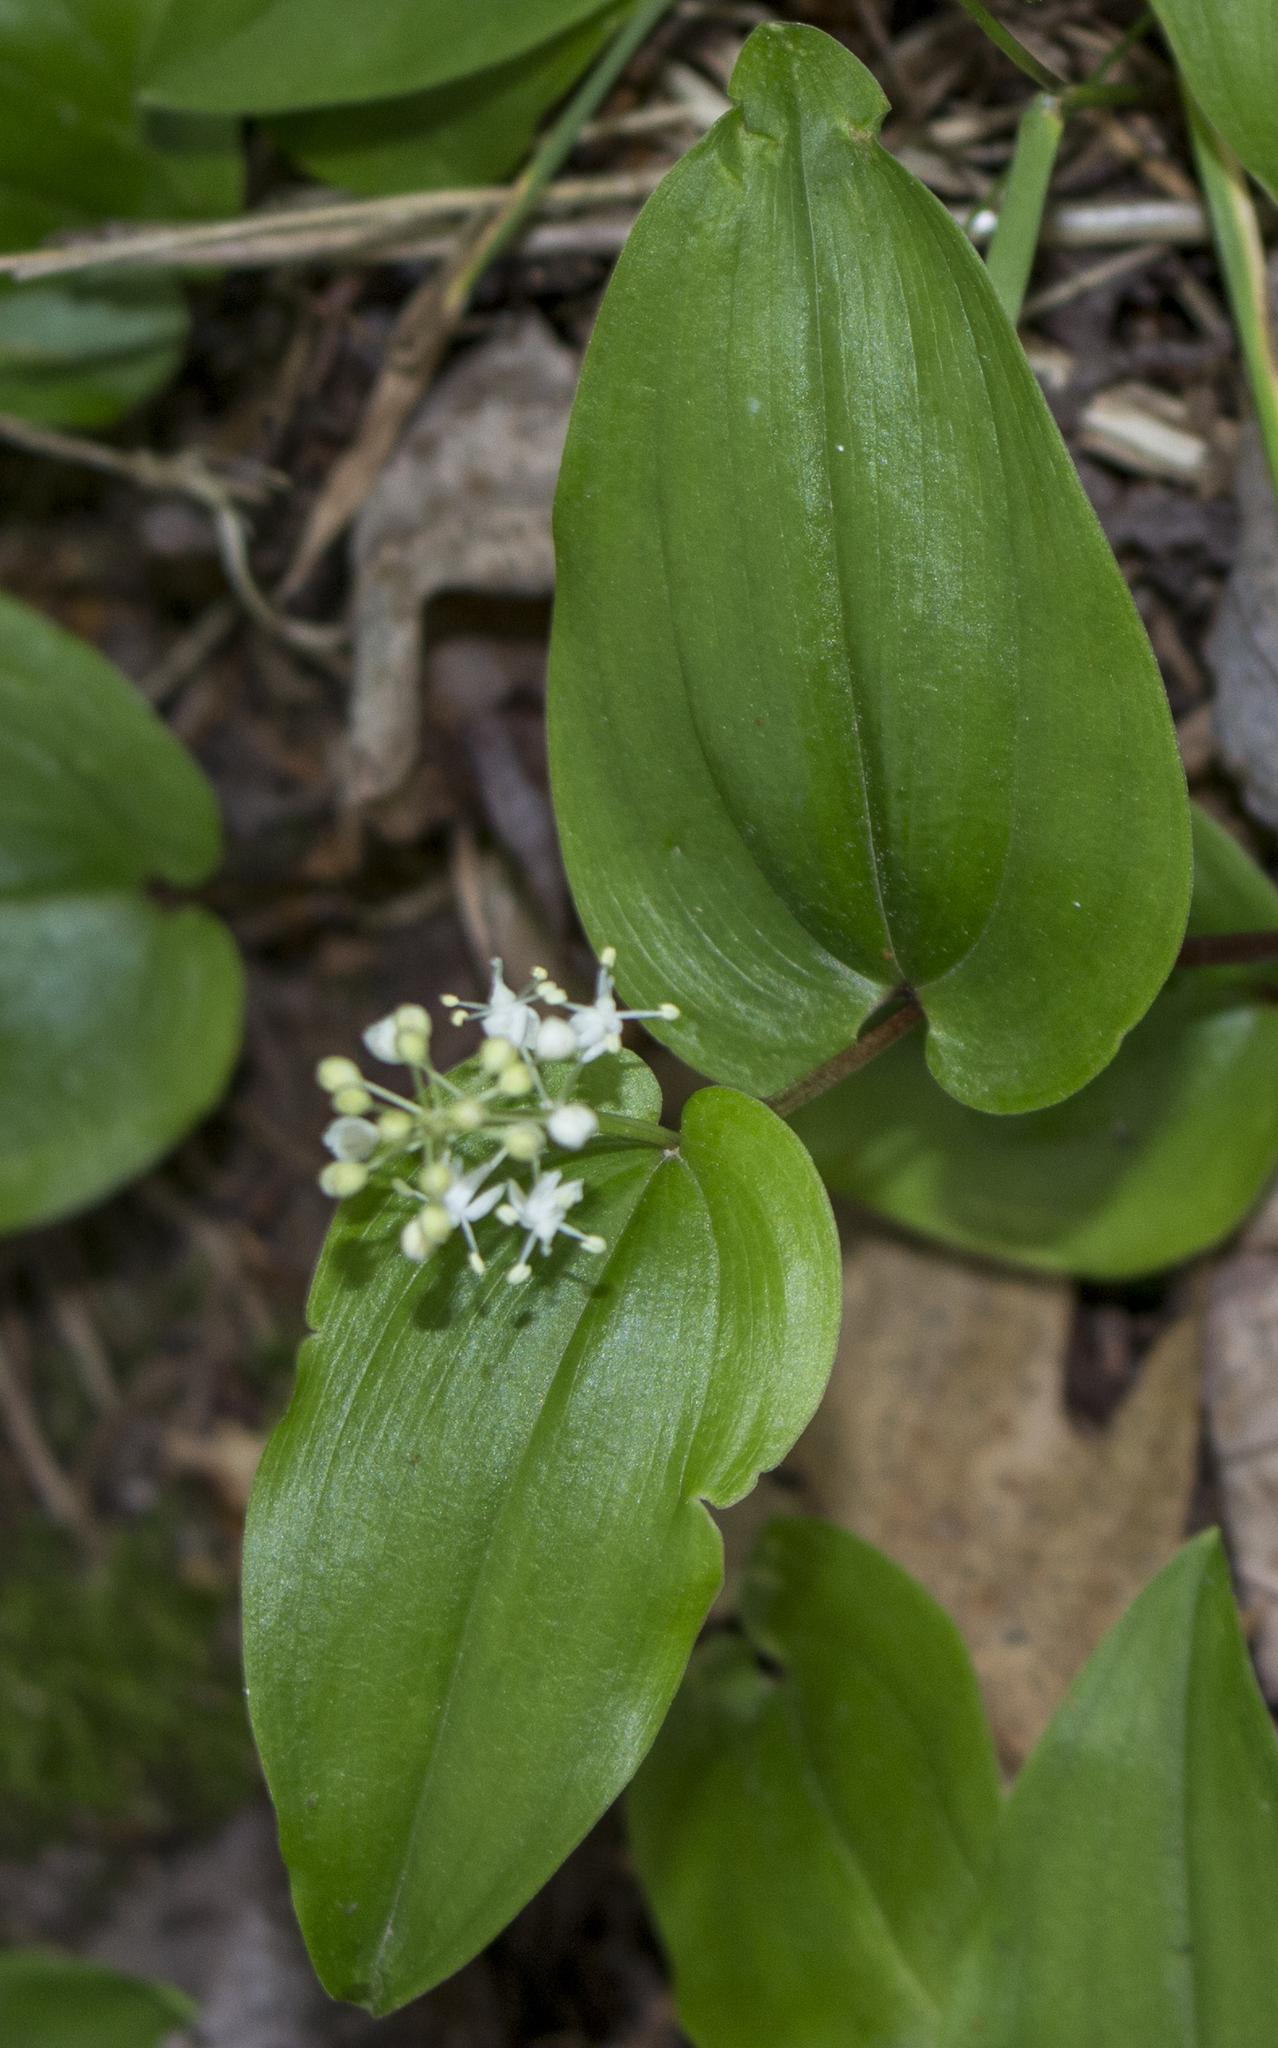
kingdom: Plantae
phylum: Tracheophyta
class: Liliopsida
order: Asparagales
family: Asparagaceae
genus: Maianthemum
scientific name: Maianthemum canadense
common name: False lily-of-the-valley
